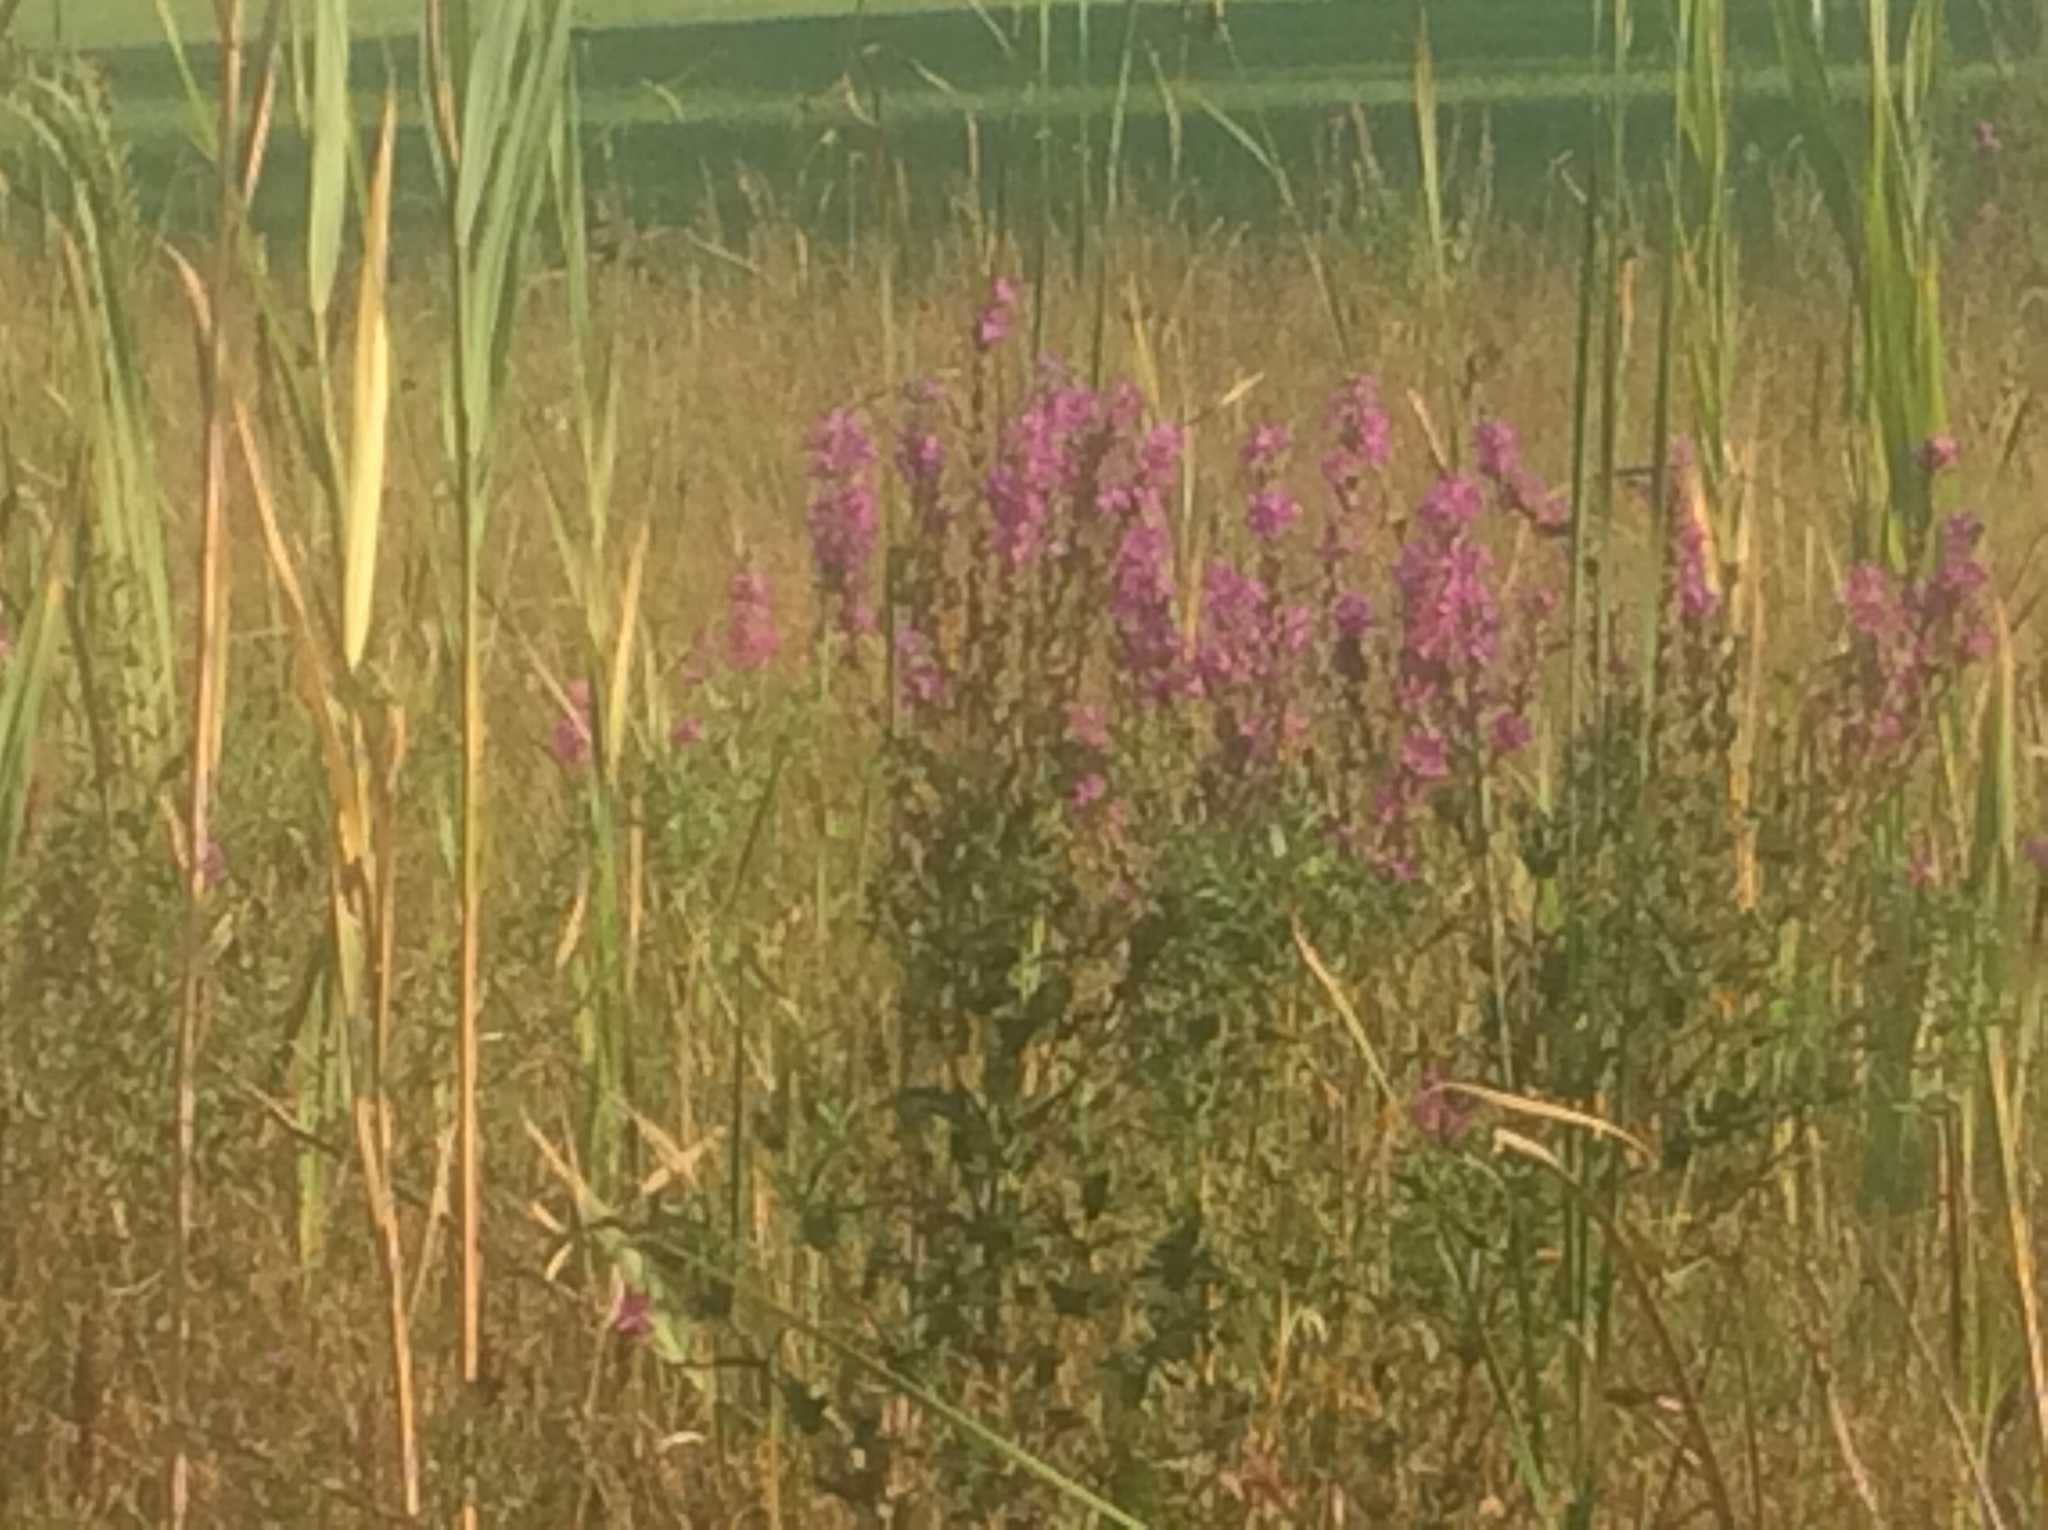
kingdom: Plantae
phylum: Tracheophyta
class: Magnoliopsida
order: Myrtales
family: Lythraceae
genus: Lythrum
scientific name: Lythrum salicaria
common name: Purple loosestrife
